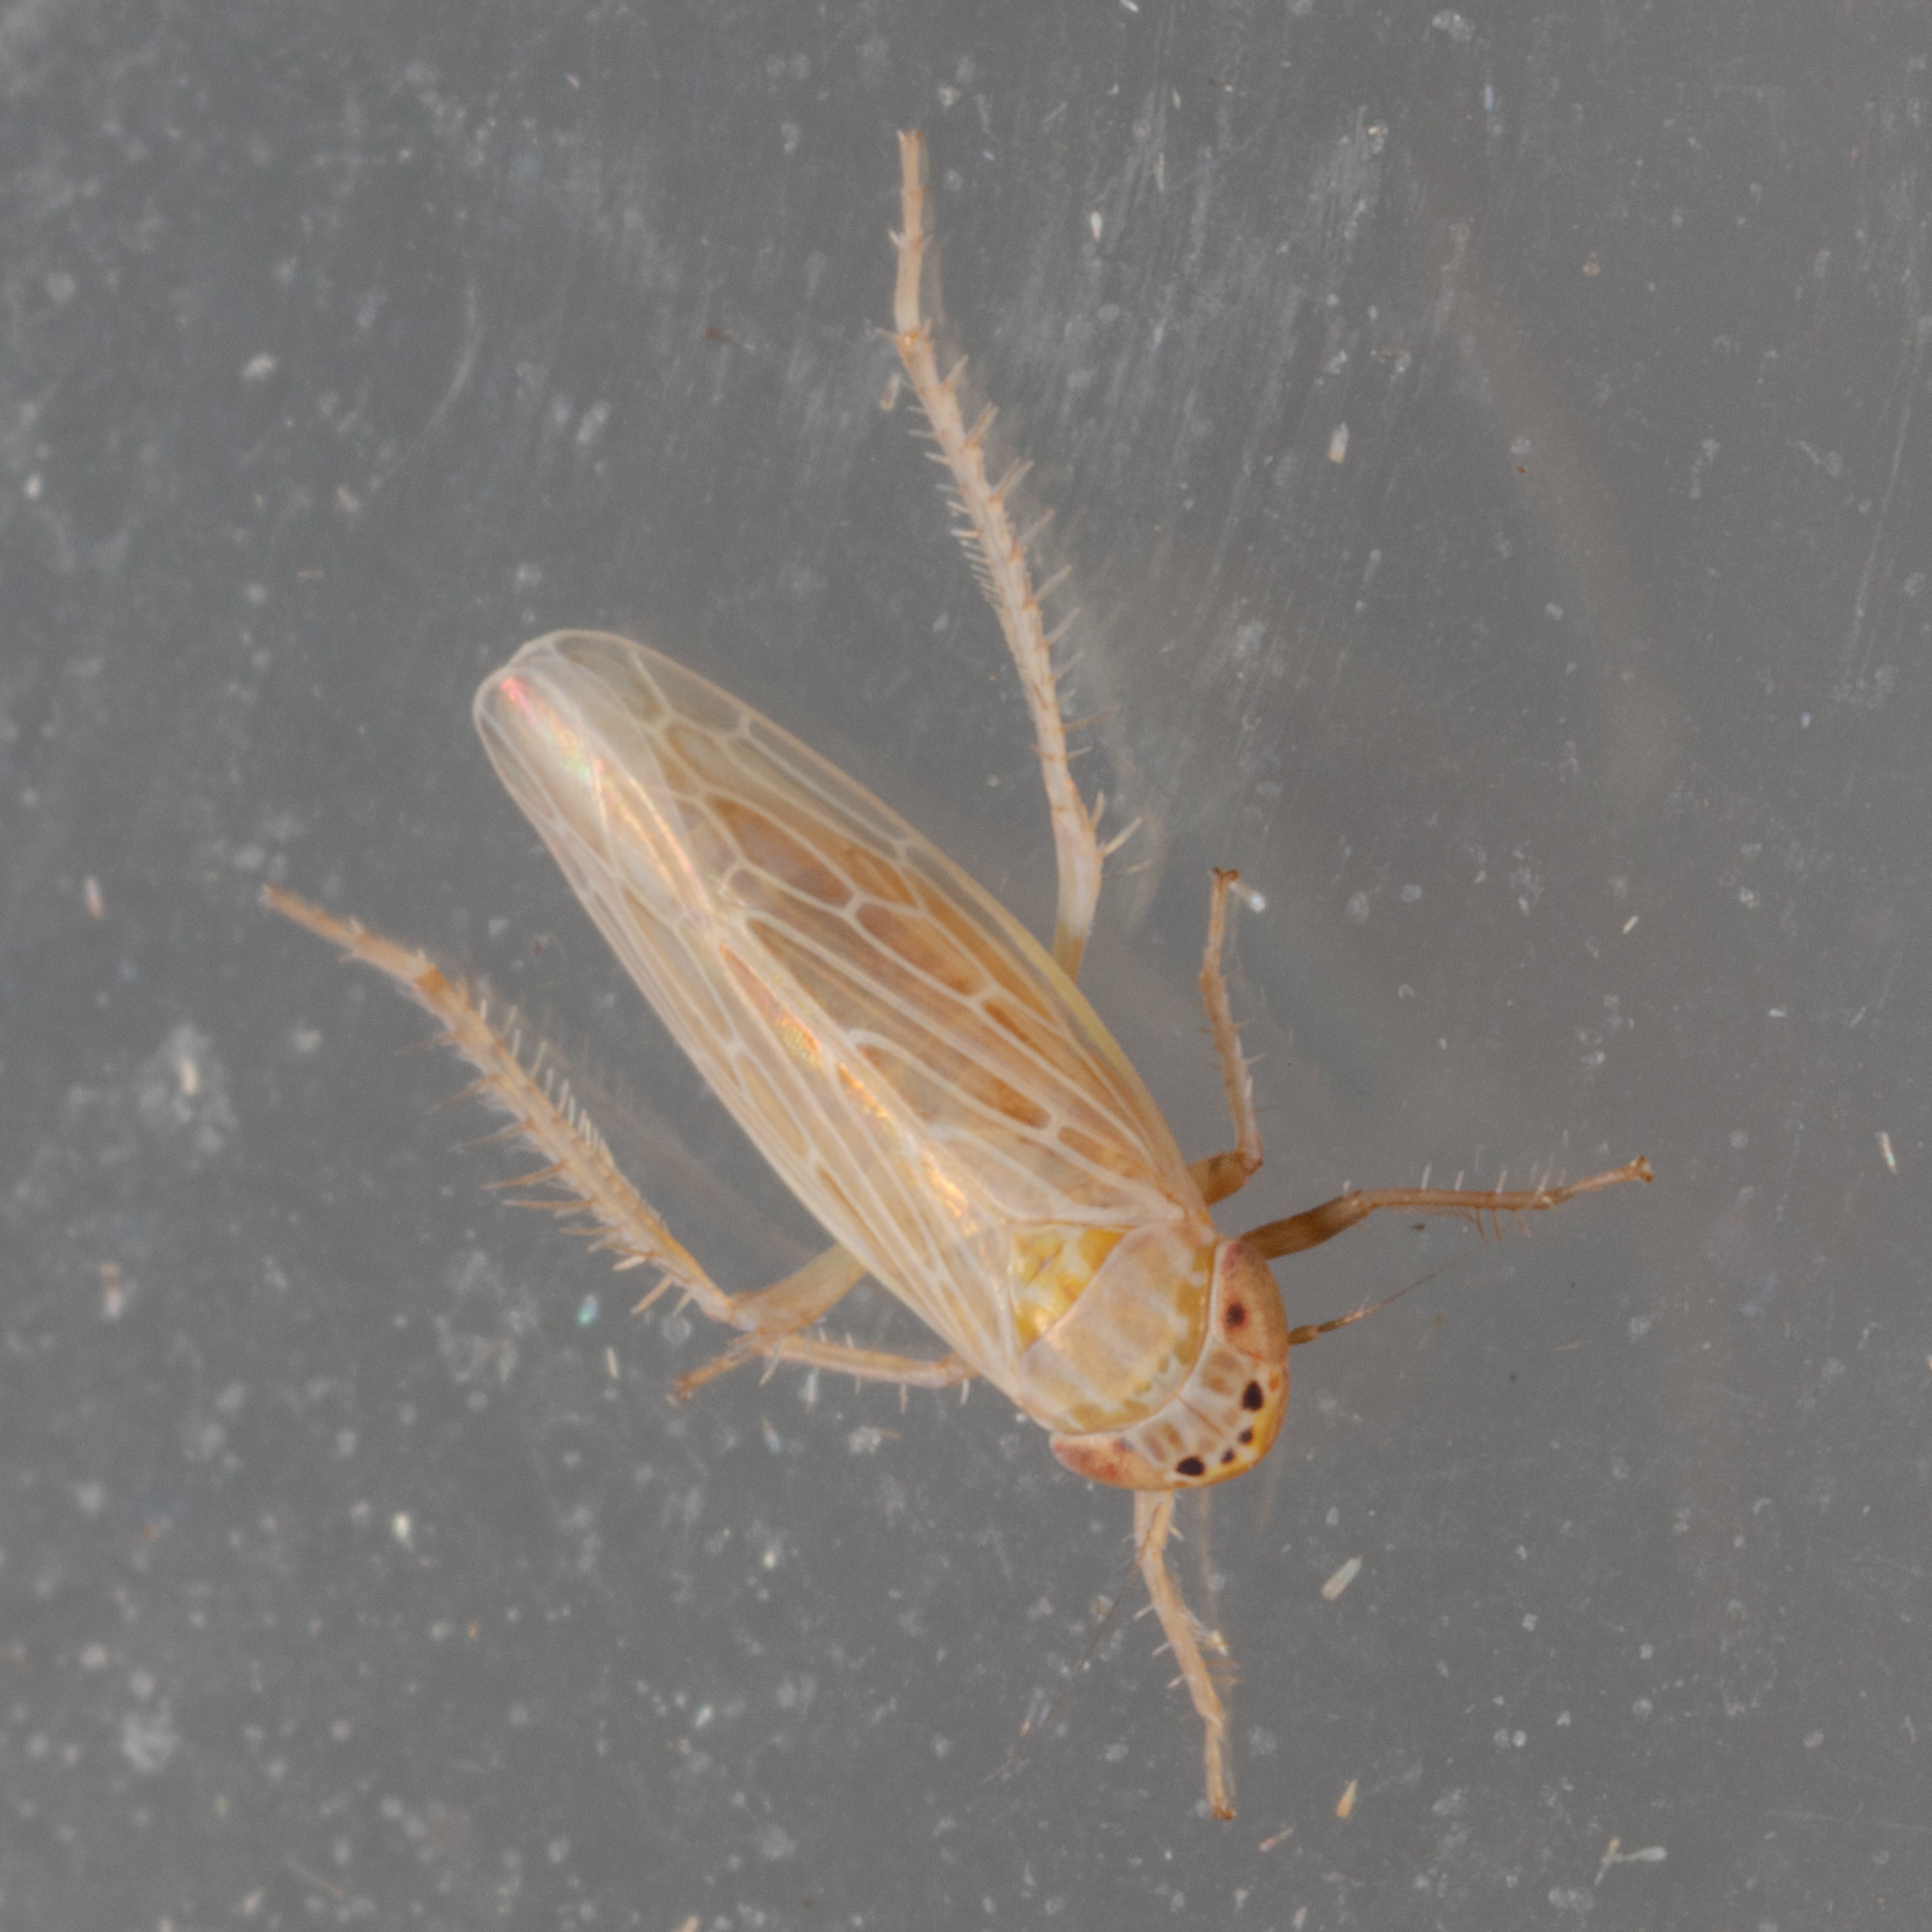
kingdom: Animalia
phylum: Arthropoda
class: Insecta
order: Hemiptera
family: Cicadellidae
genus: Graminella
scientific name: Graminella sonora
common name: Lesser lawn leafhopper
